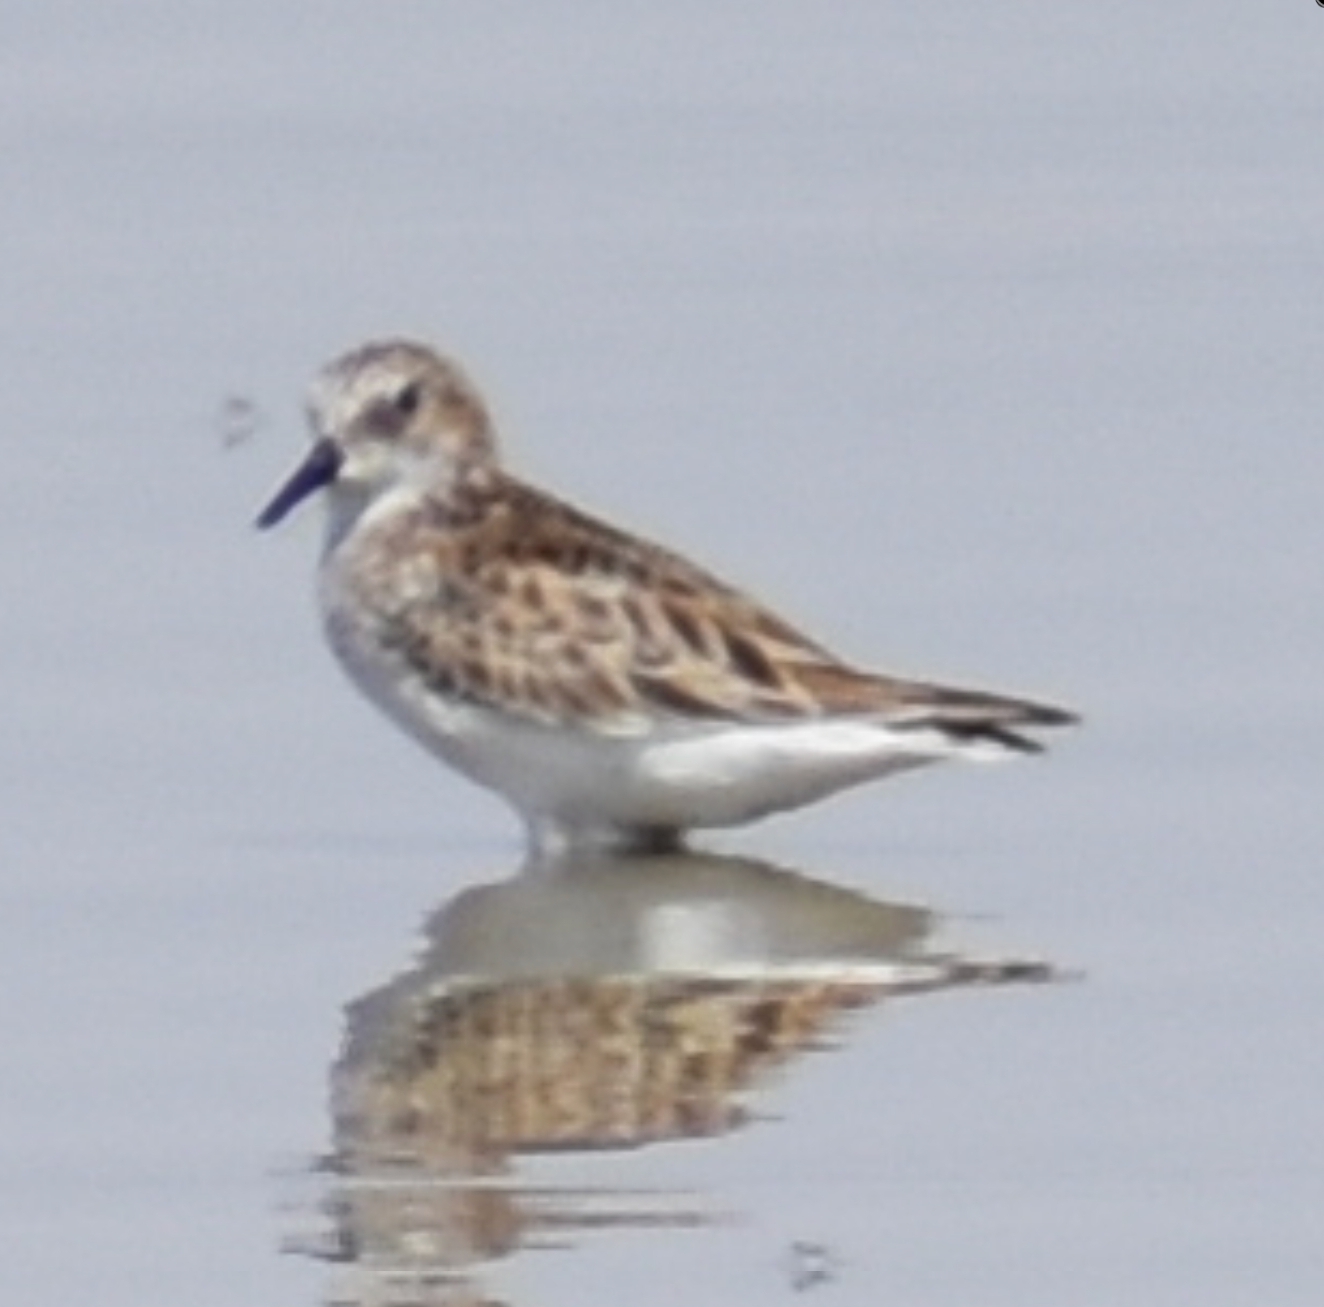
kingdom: Animalia
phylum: Chordata
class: Aves
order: Charadriiformes
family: Scolopacidae
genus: Calidris
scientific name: Calidris minuta
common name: Little stint
